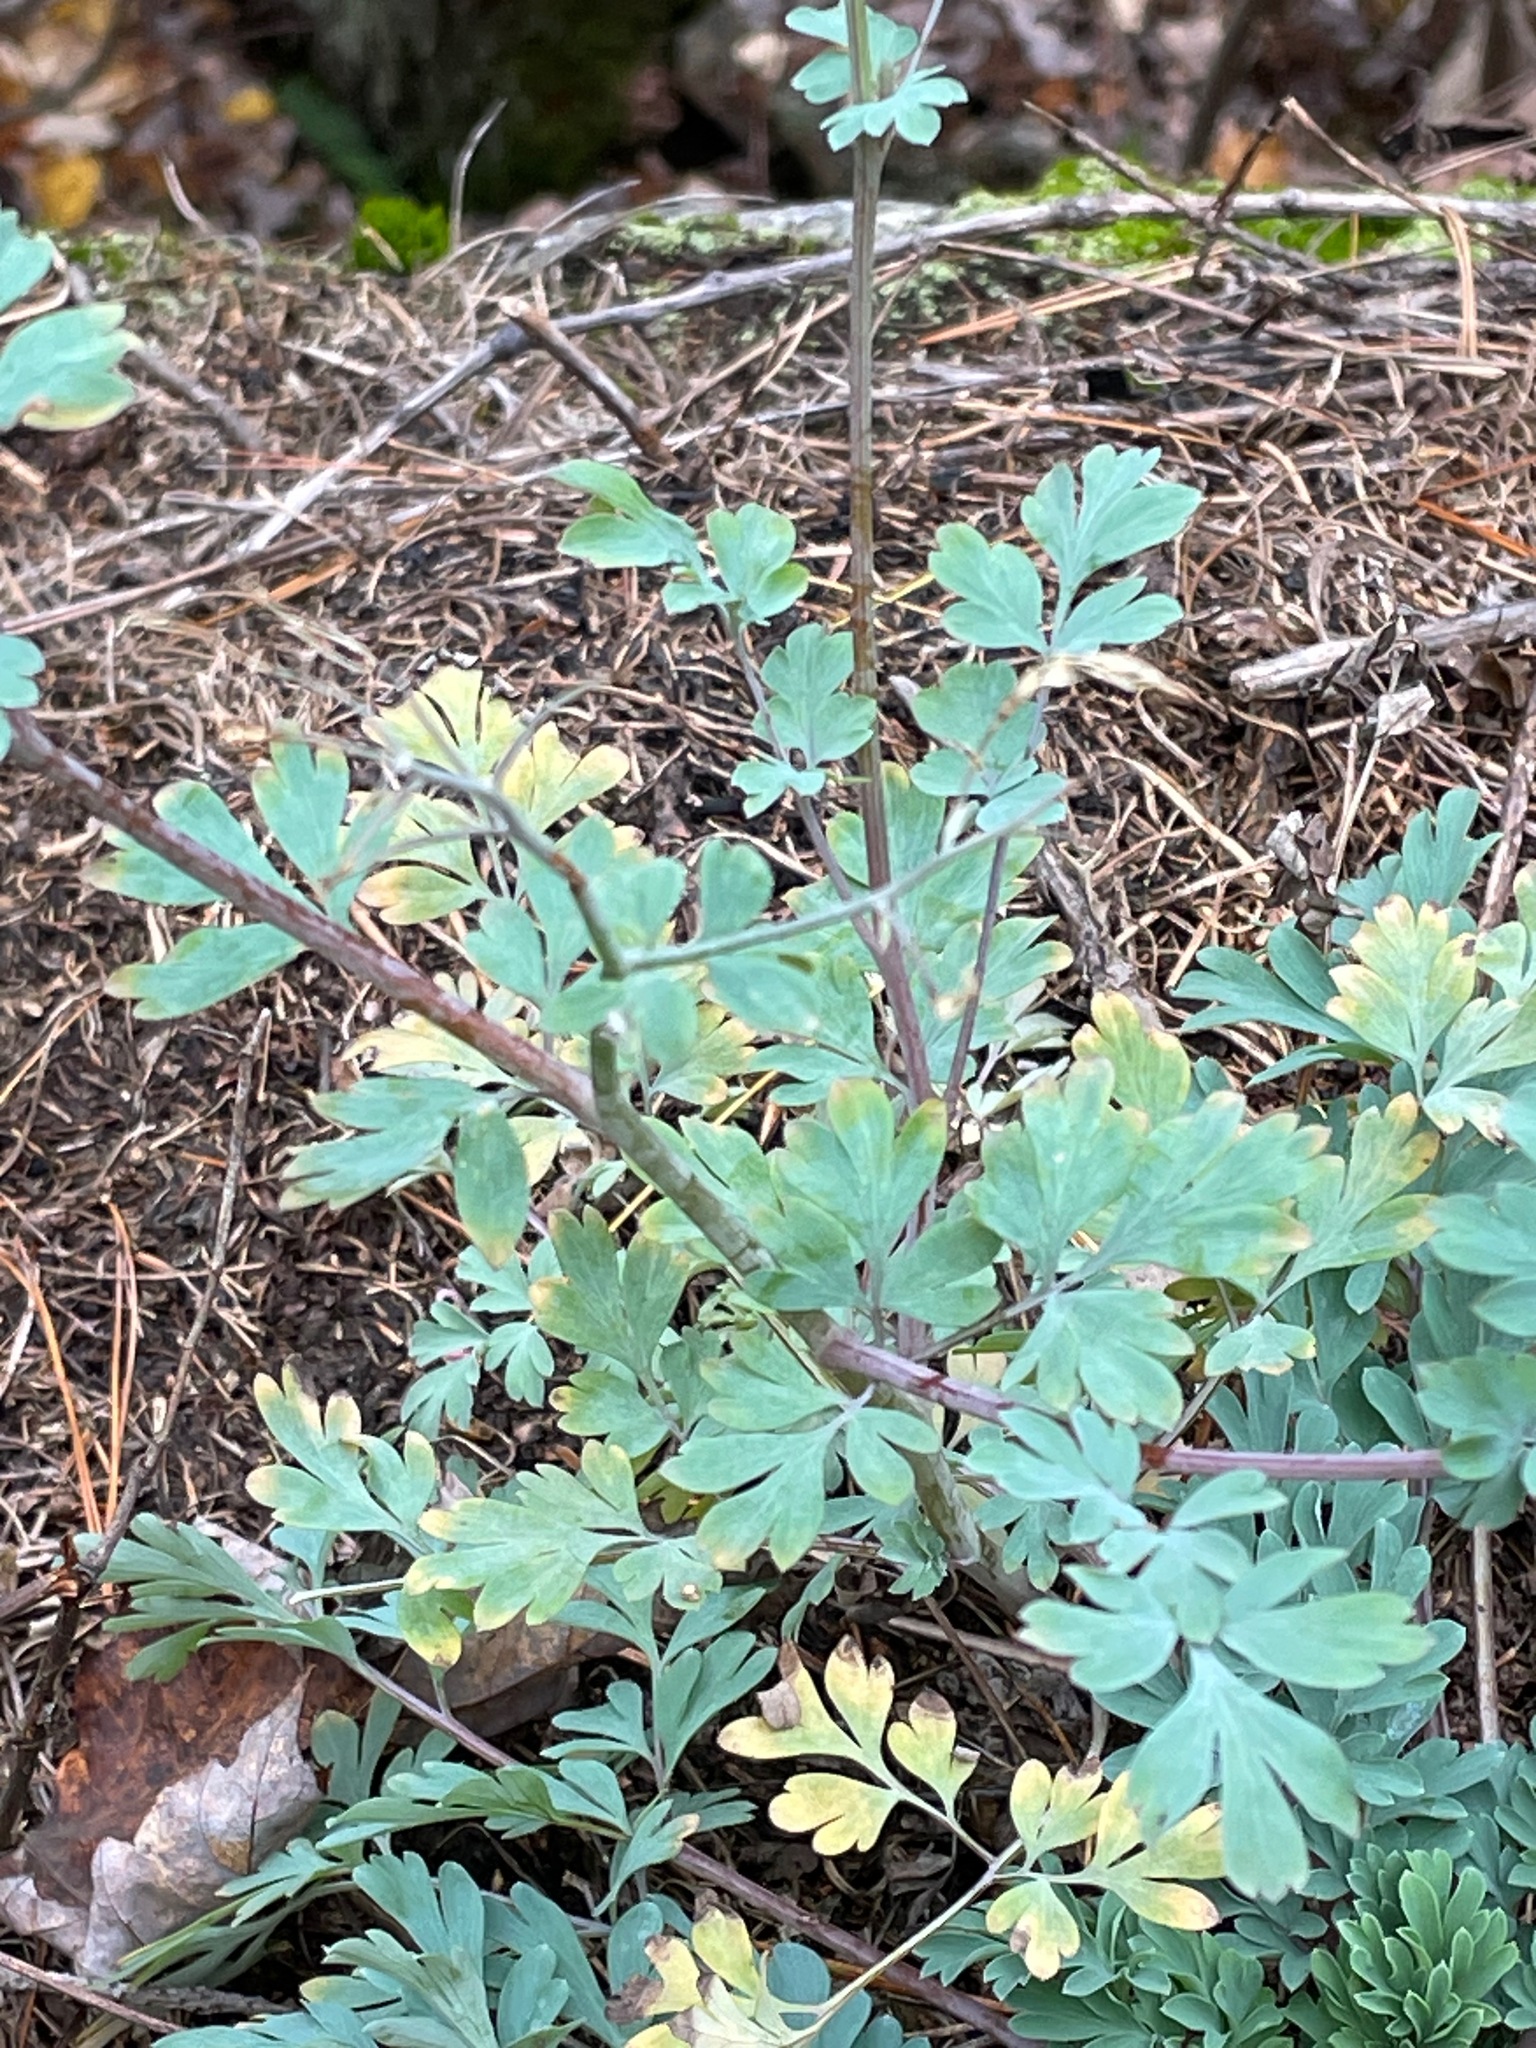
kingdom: Plantae
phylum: Tracheophyta
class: Magnoliopsida
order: Ranunculales
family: Papaveraceae
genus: Capnoides
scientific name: Capnoides sempervirens
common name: Rock harlequin
